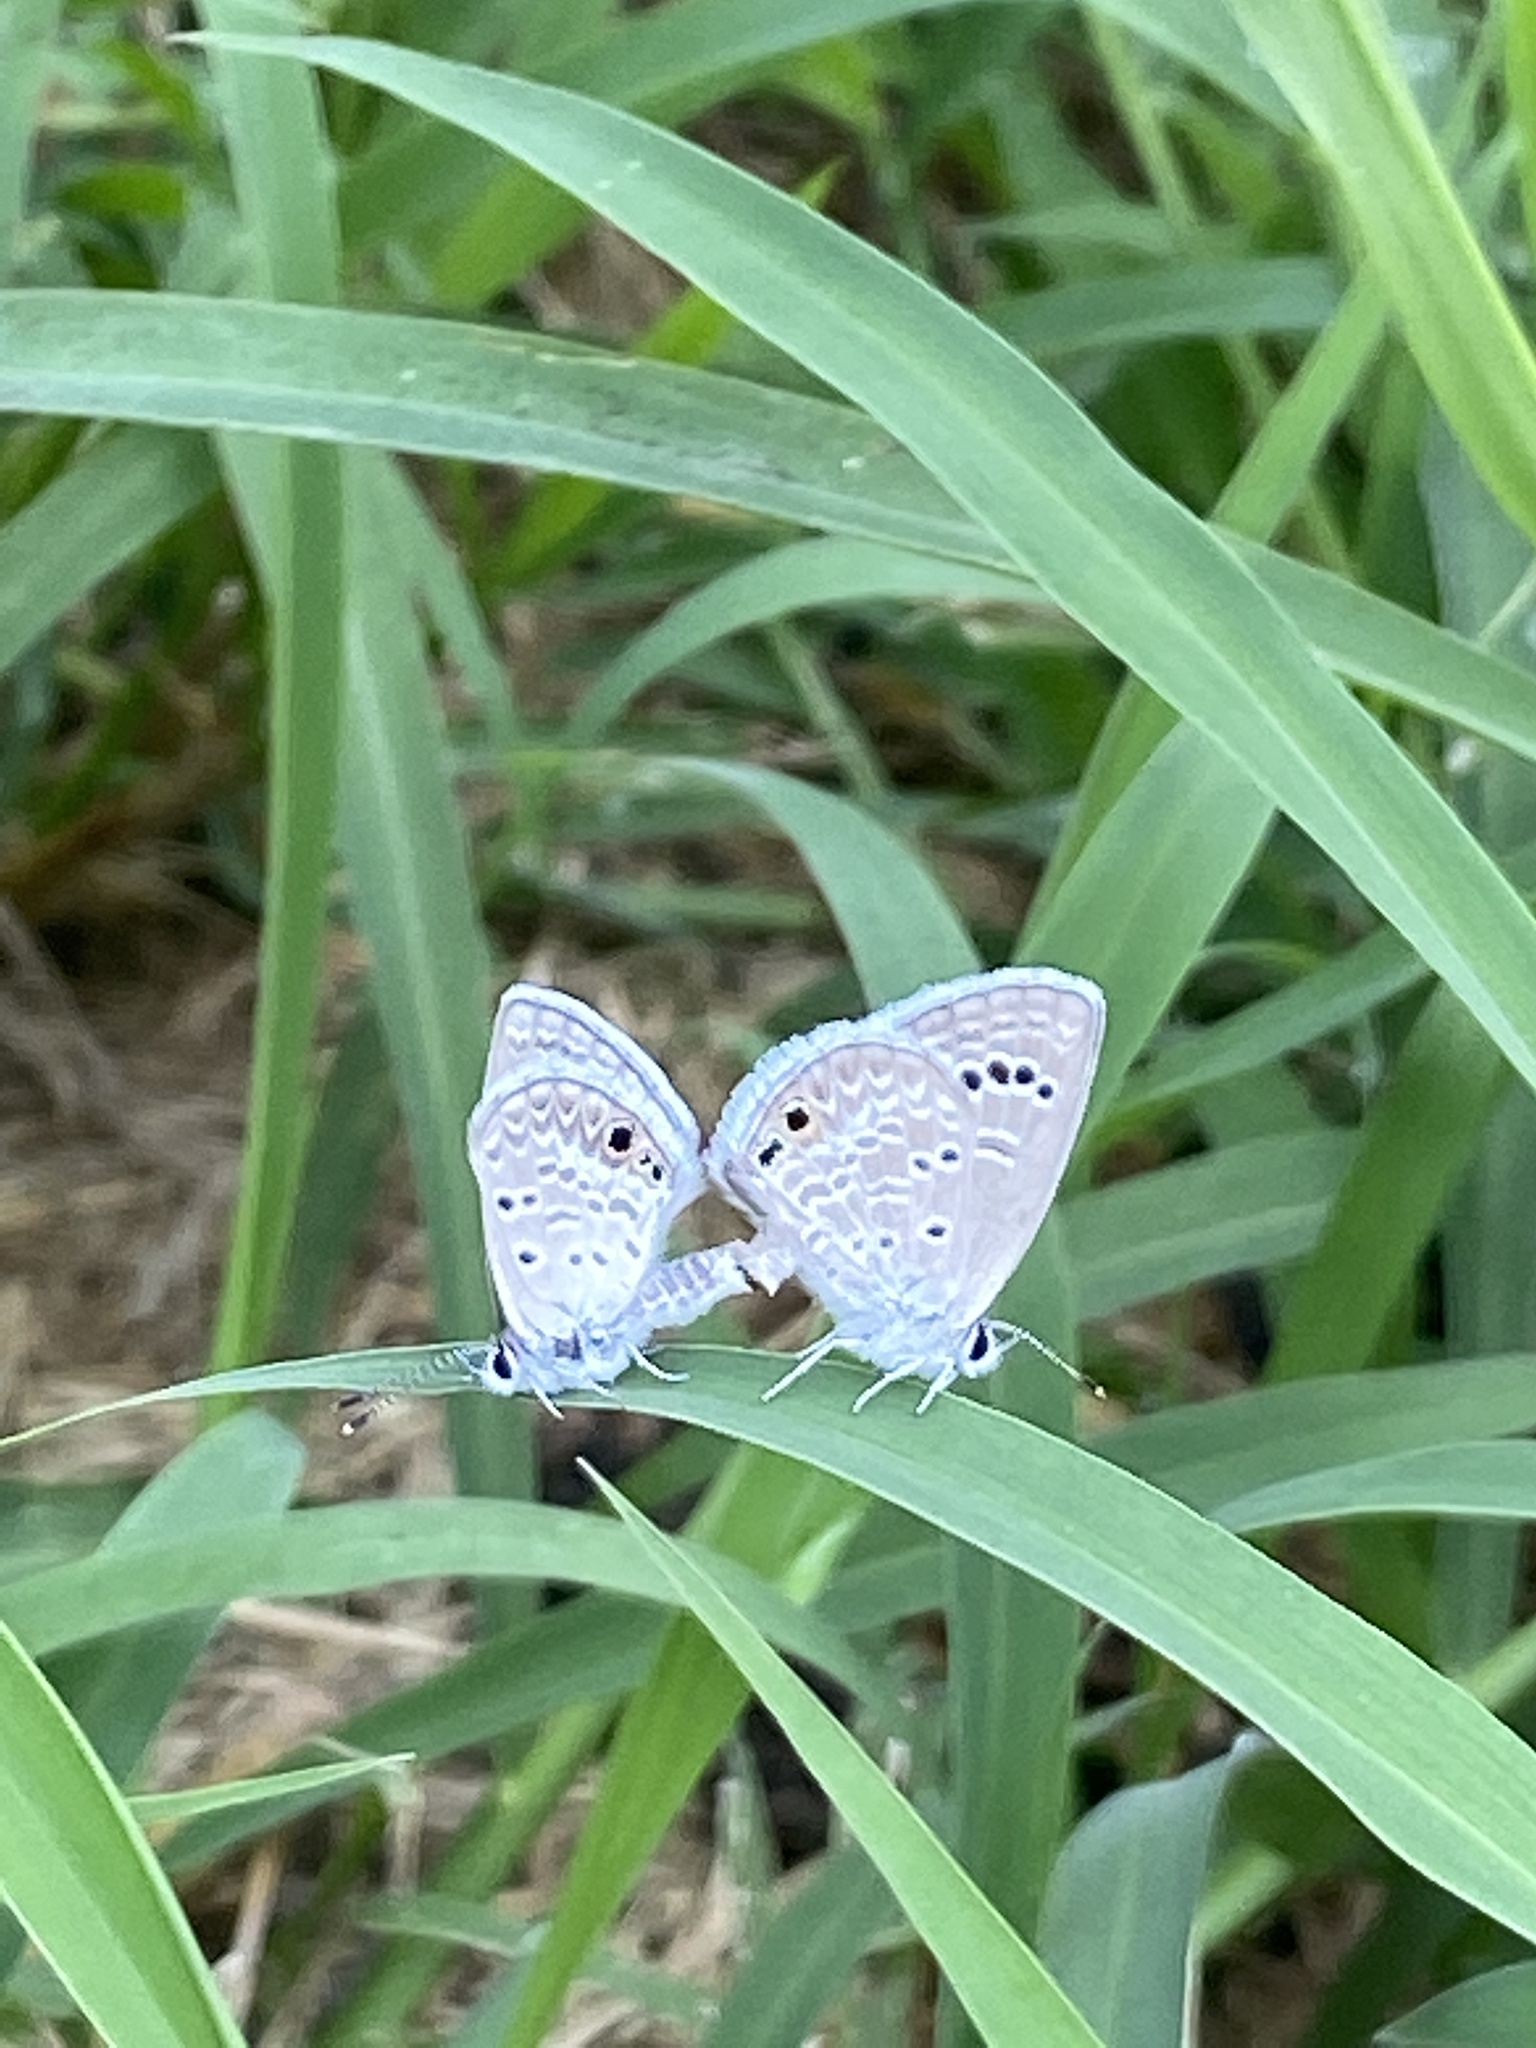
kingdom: Animalia
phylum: Arthropoda
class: Insecta
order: Lepidoptera
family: Lycaenidae
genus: Echinargus
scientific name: Echinargus isola
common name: Reakirt's blue
